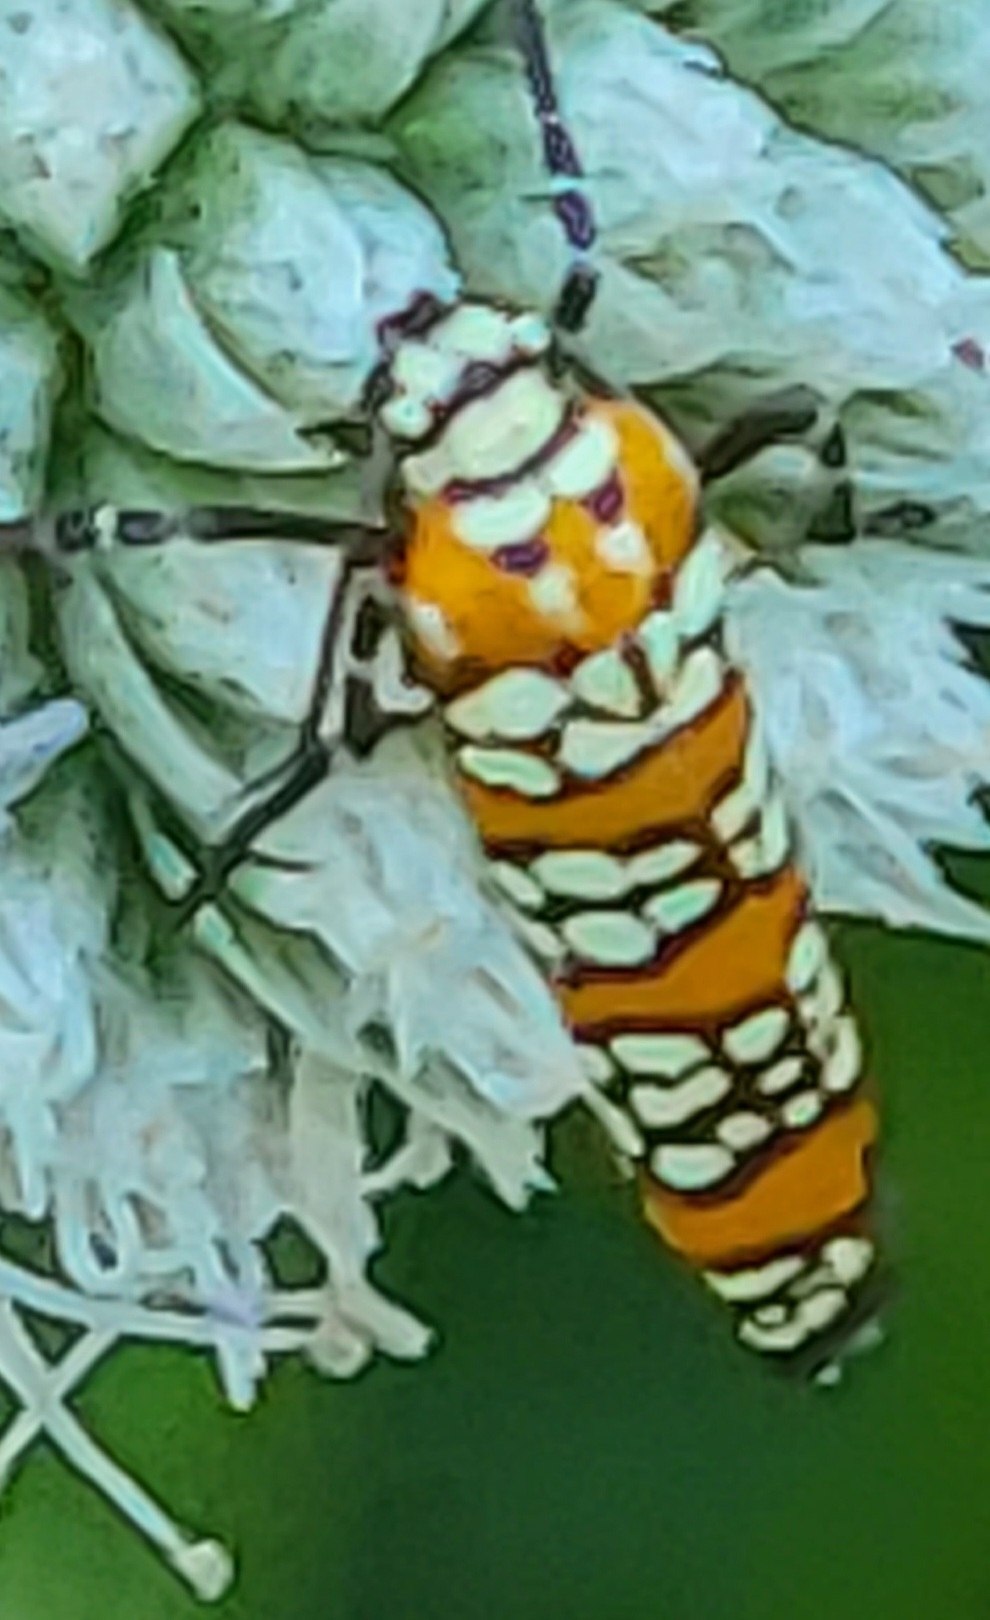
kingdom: Animalia
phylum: Arthropoda
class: Insecta
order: Lepidoptera
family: Attevidae
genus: Atteva
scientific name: Atteva punctella
